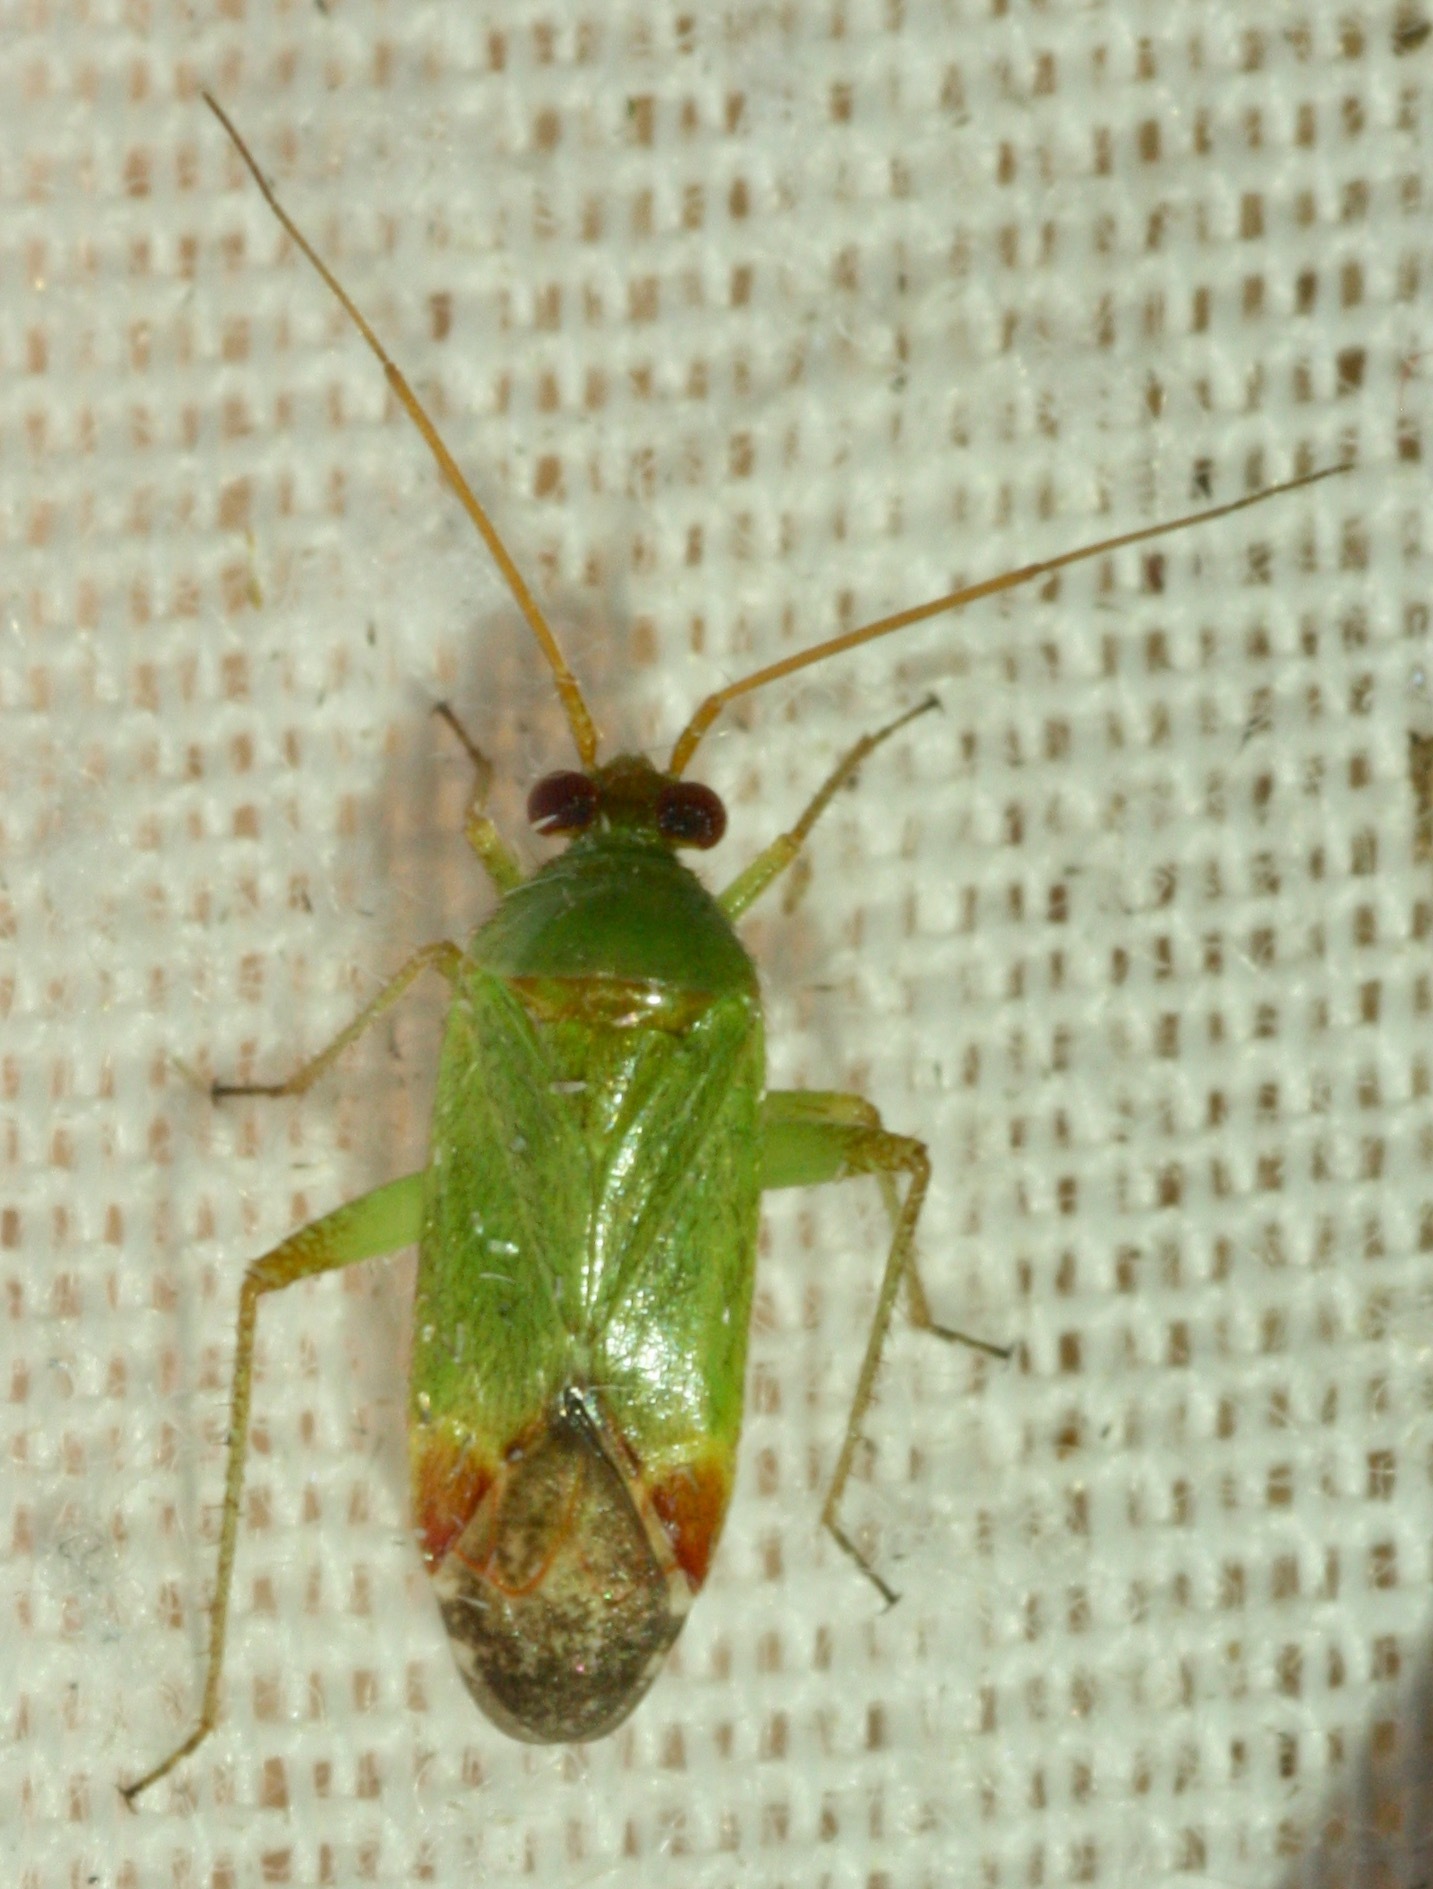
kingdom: Animalia
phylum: Arthropoda
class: Insecta
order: Hemiptera
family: Miridae
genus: Phytocoris
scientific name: Phytocoris vanduzeei
